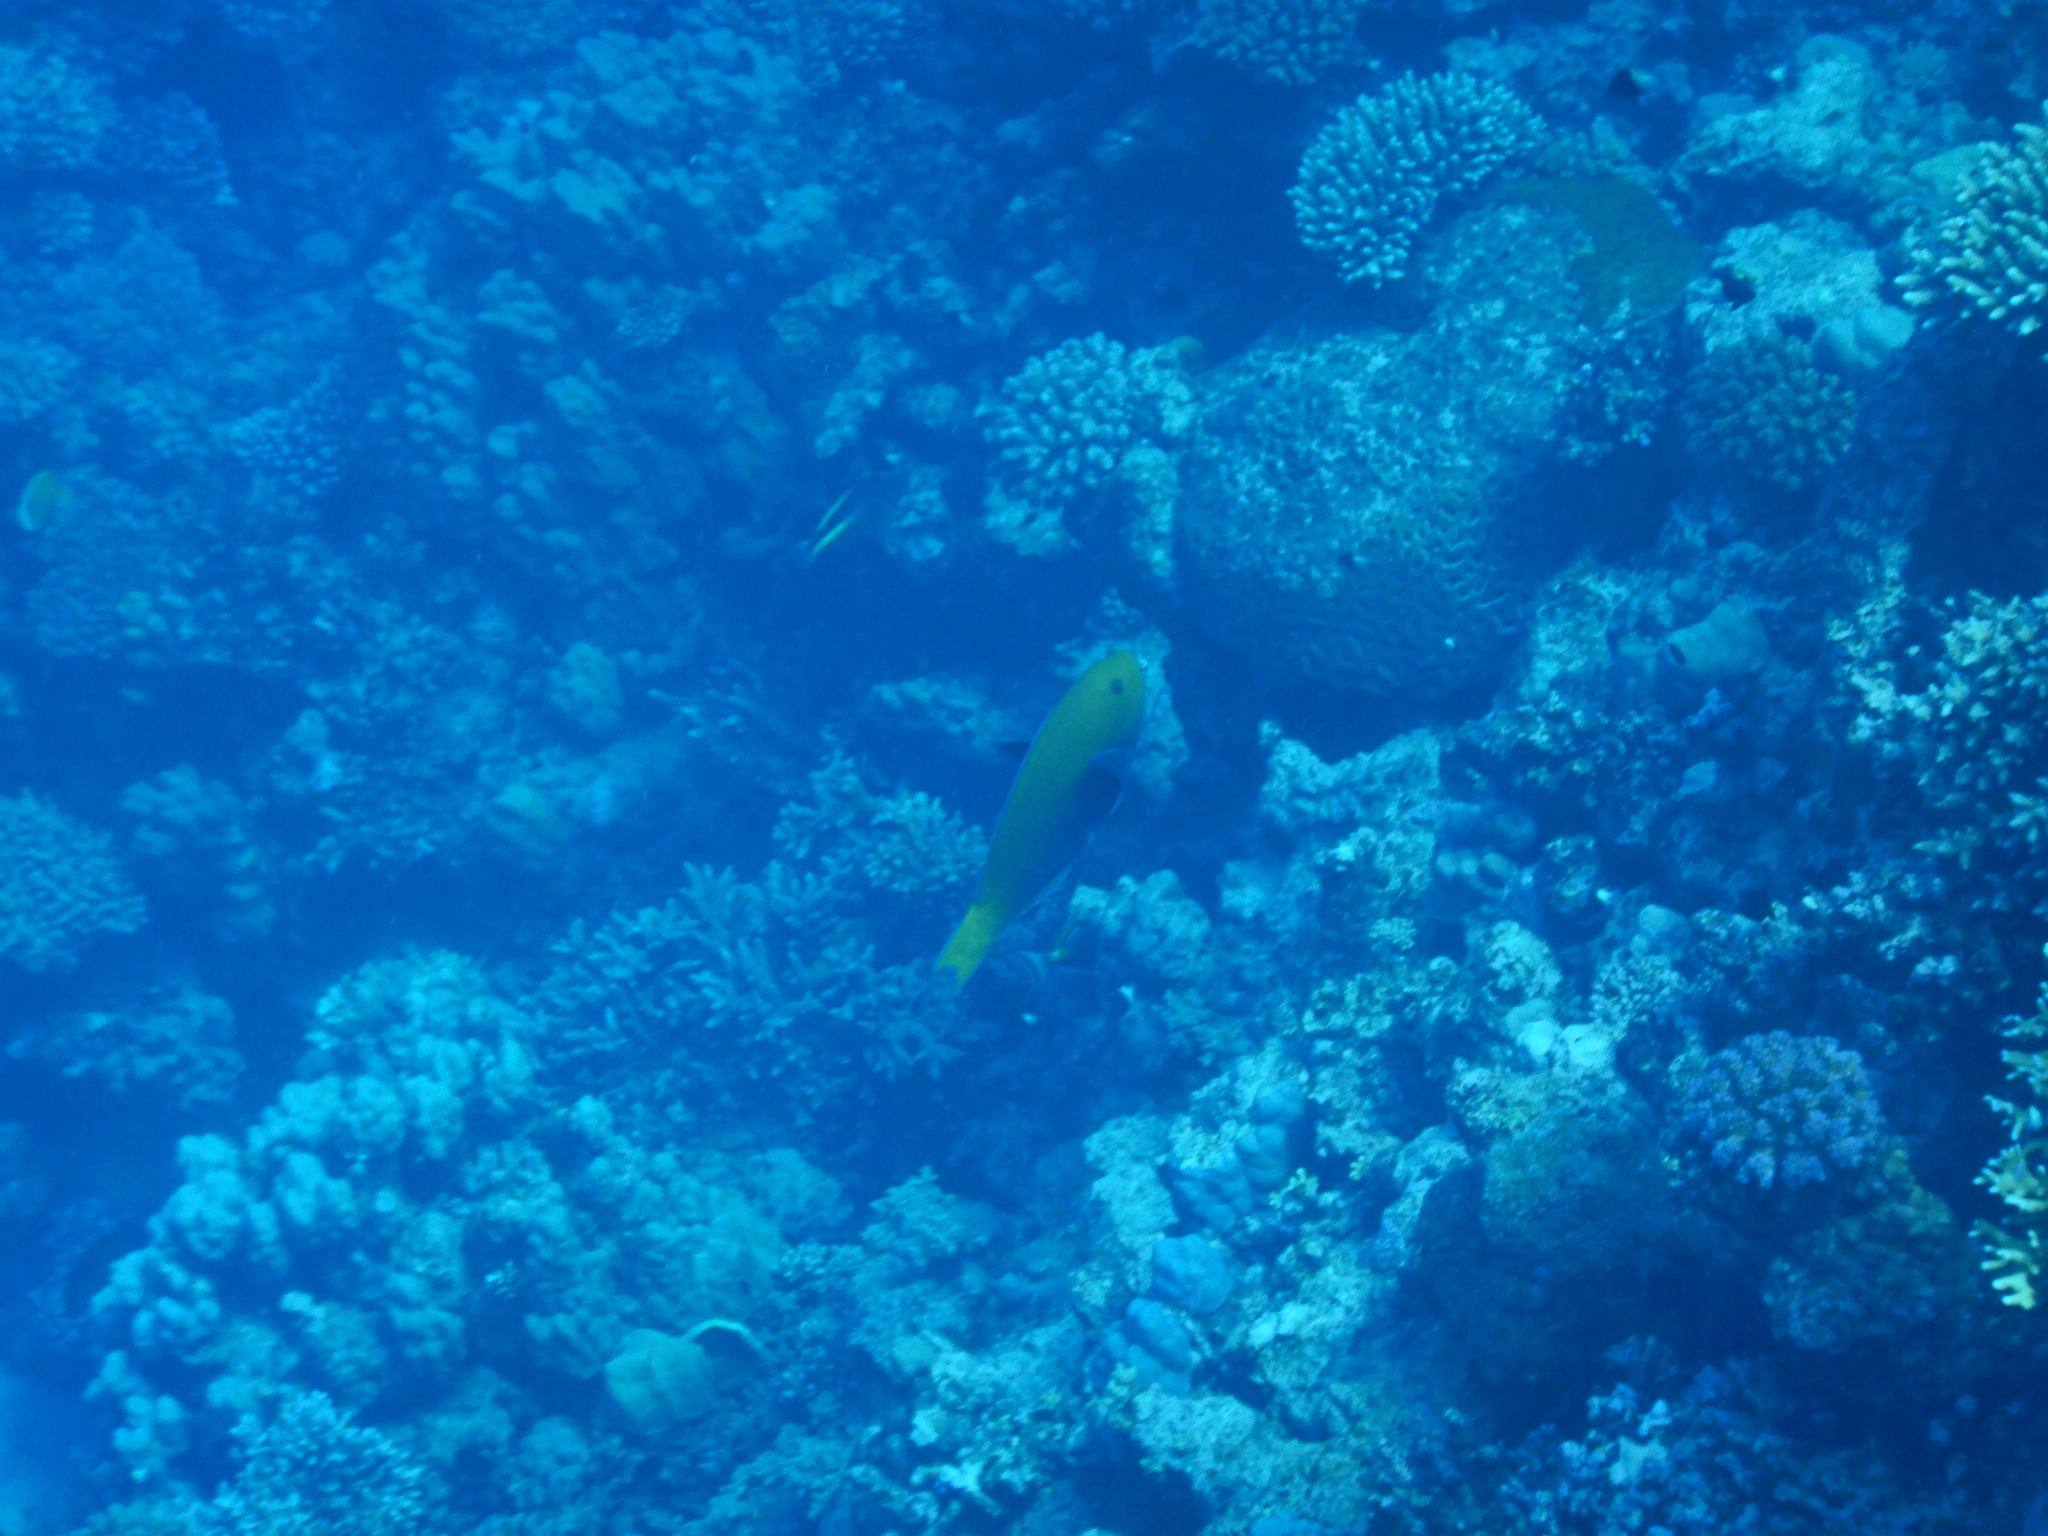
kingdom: Animalia
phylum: Chordata
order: Perciformes
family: Scaridae
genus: Chlorurus
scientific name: Chlorurus gibbus
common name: Heavybeak parrotfish
